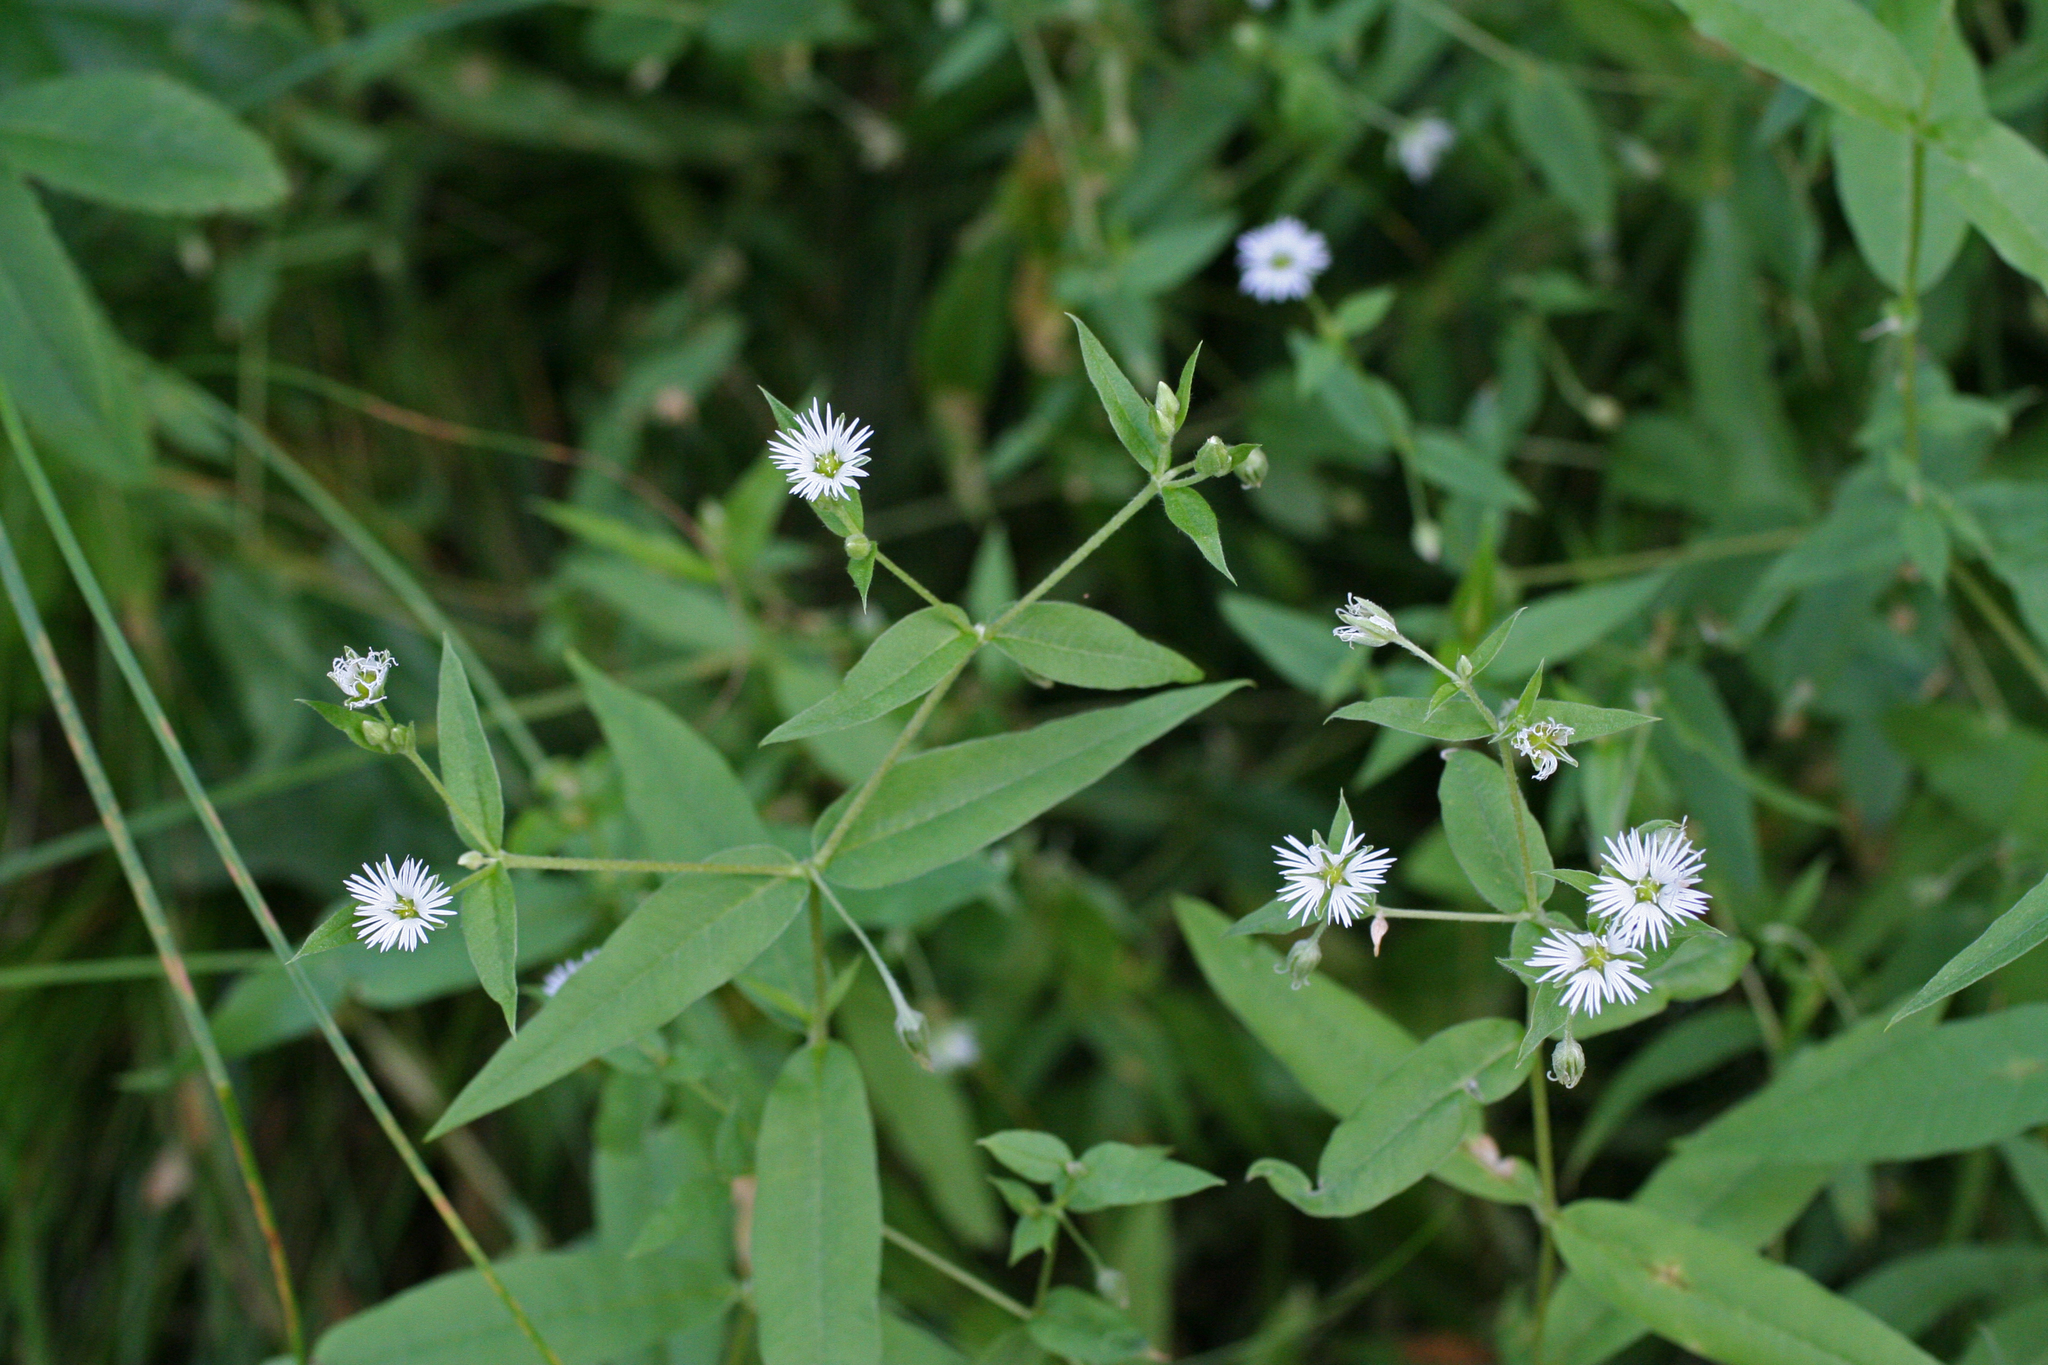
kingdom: Plantae
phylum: Tracheophyta
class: Magnoliopsida
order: Caryophyllales
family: Caryophyllaceae
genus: Stellaria
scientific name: Stellaria radians
